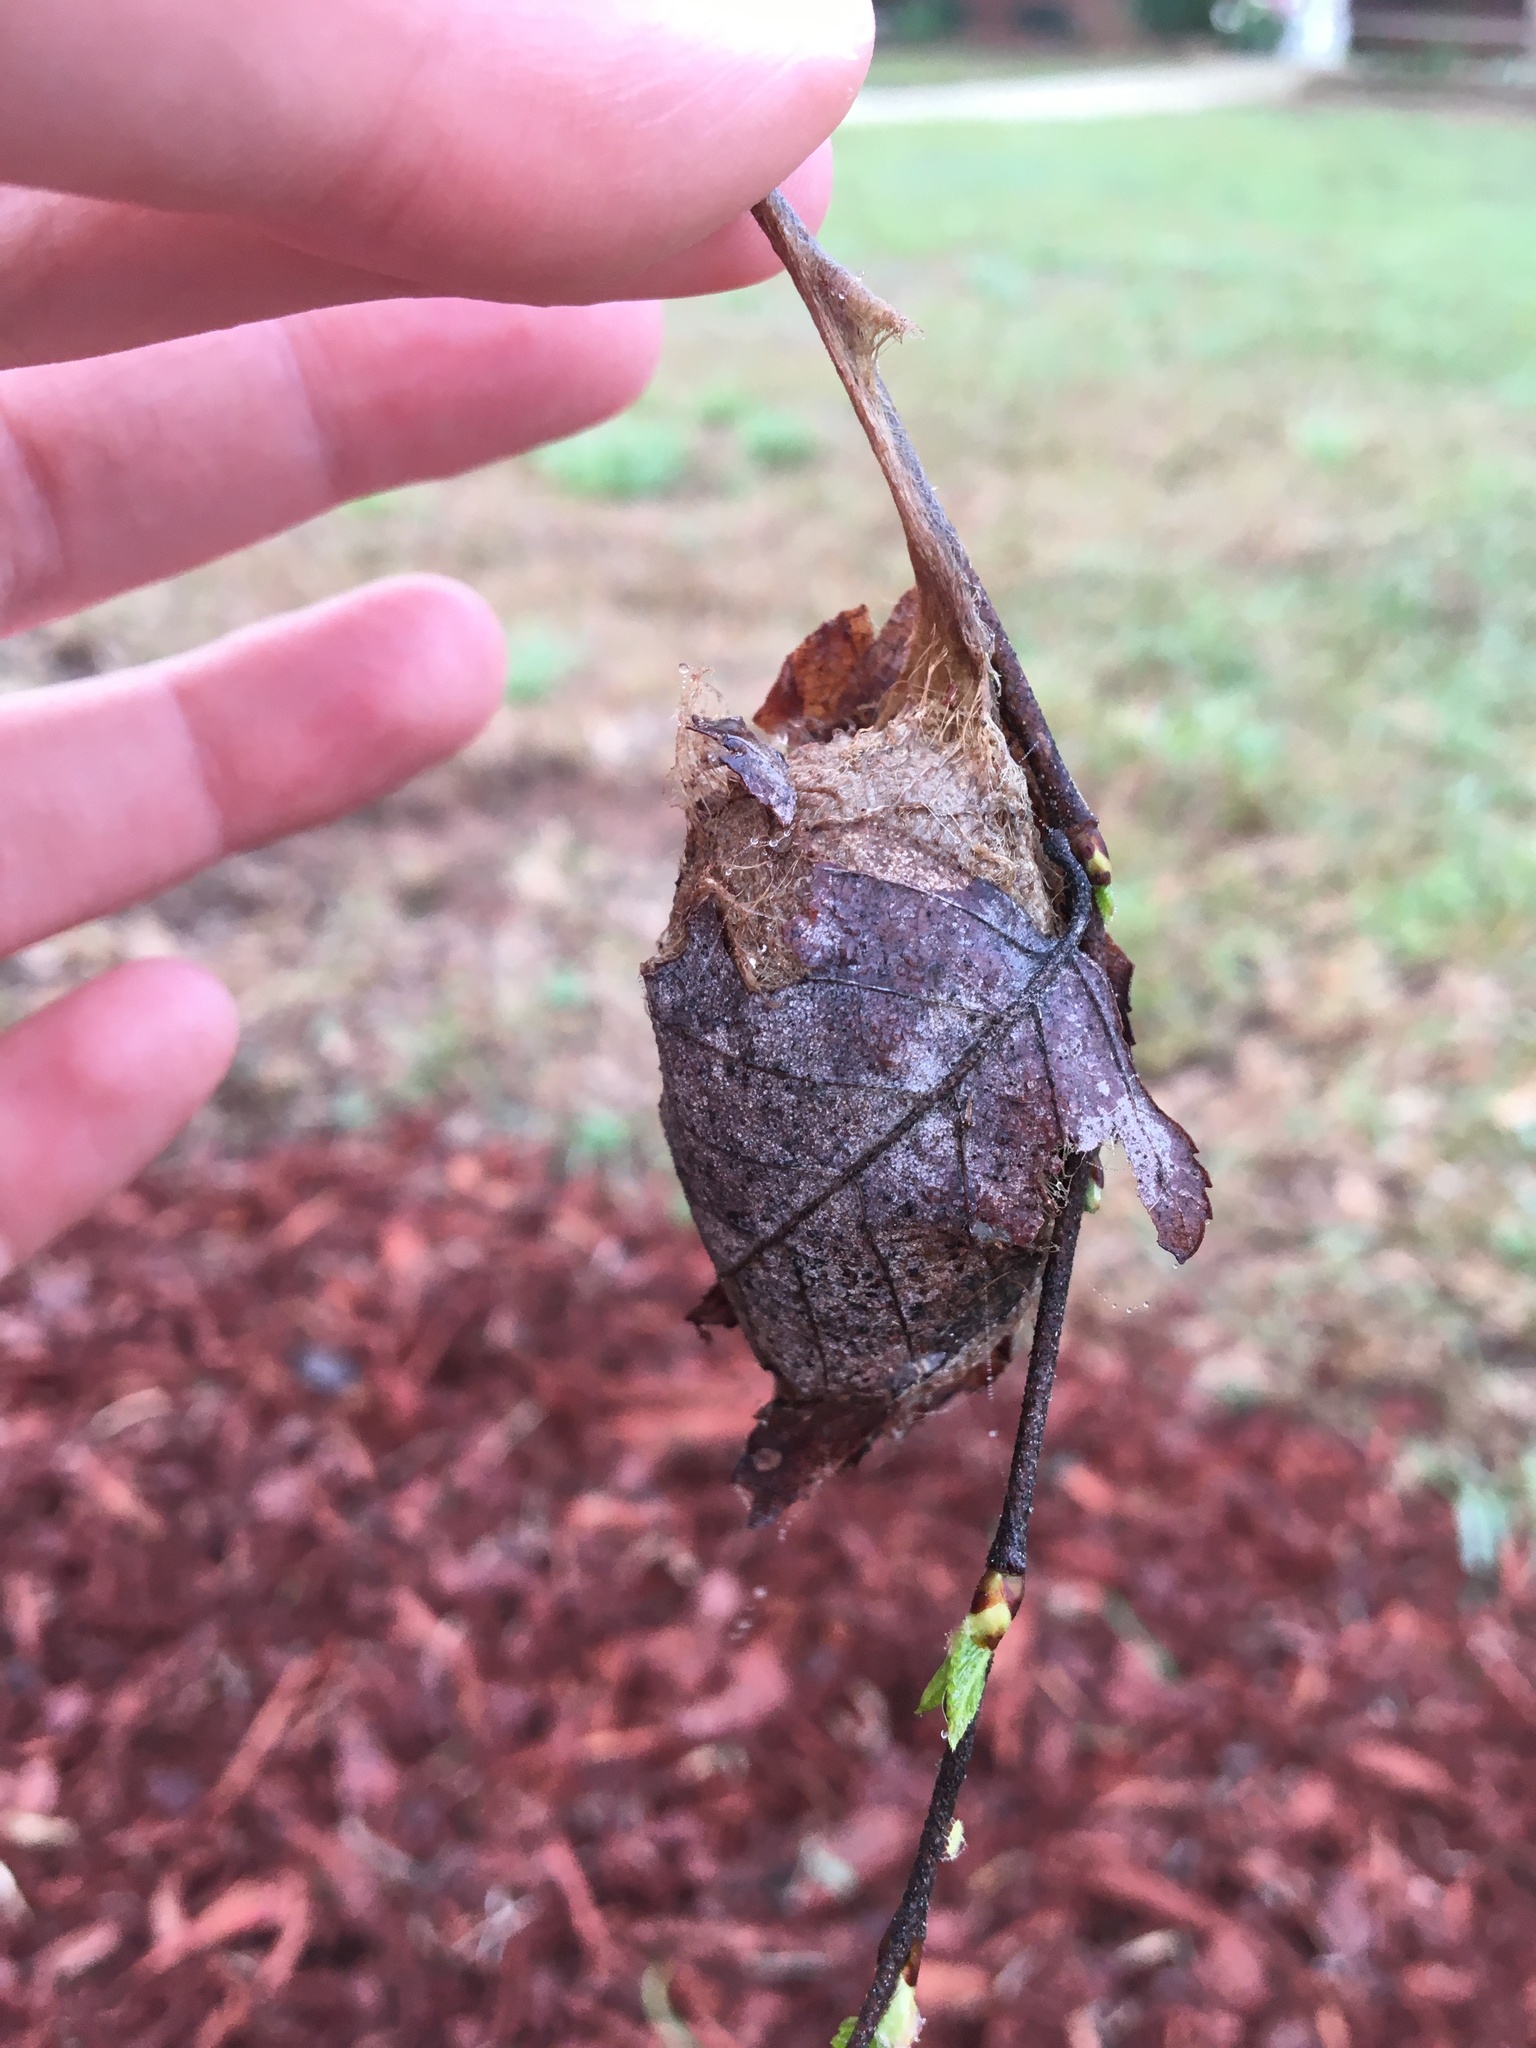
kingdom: Animalia
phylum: Arthropoda
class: Insecta
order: Lepidoptera
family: Saturniidae
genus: Antheraea
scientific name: Antheraea polyphemus
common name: Polyphemus moth
